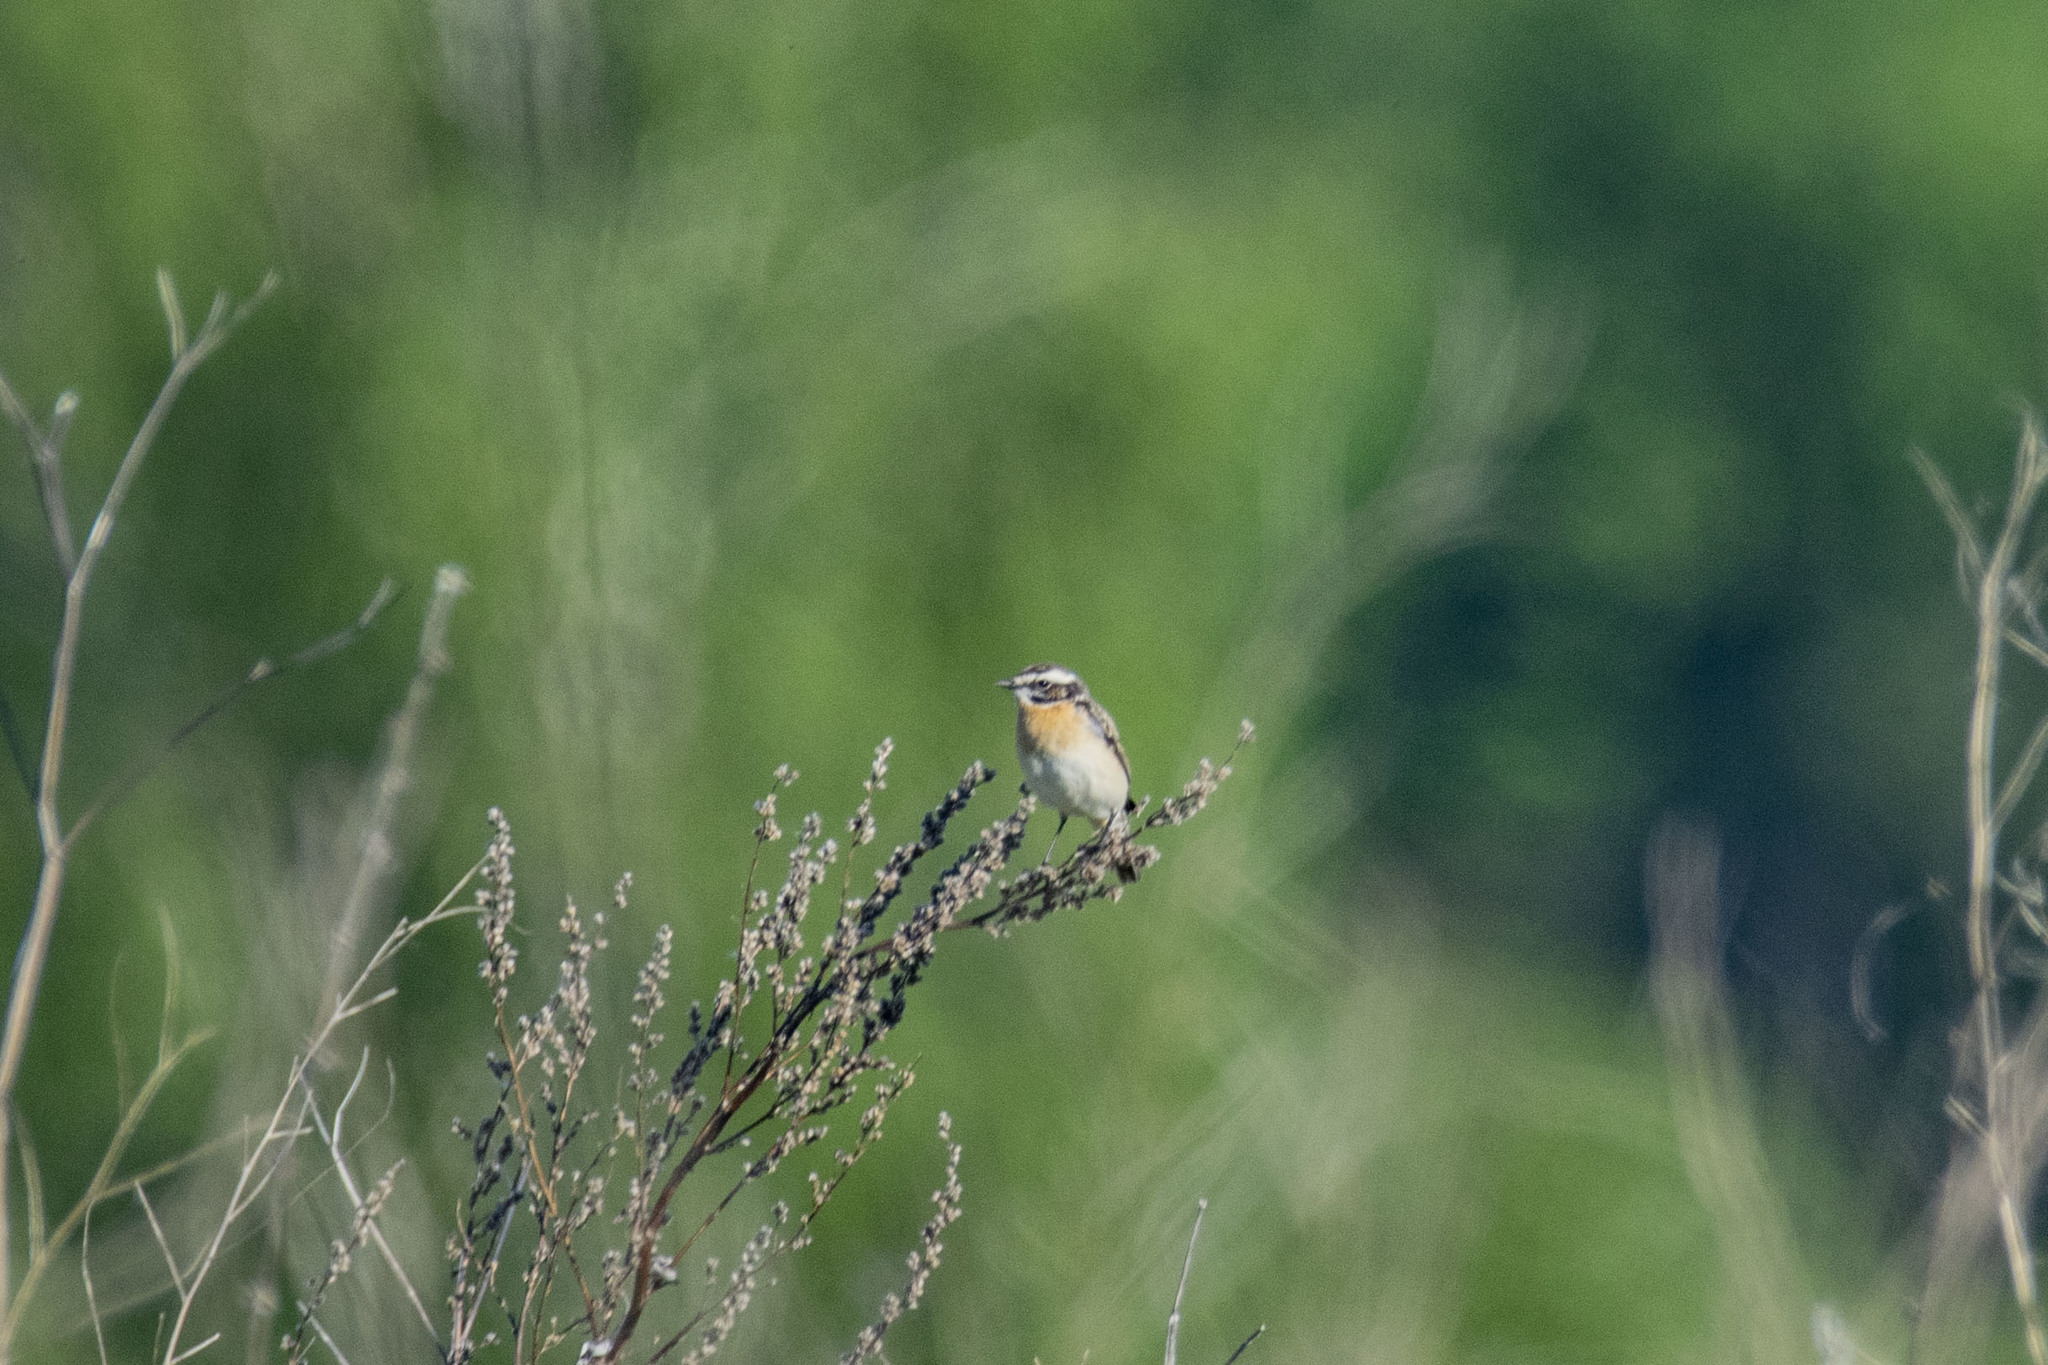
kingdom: Animalia
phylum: Chordata
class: Aves
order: Passeriformes
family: Muscicapidae
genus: Saxicola
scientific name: Saxicola rubetra
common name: Whinchat
